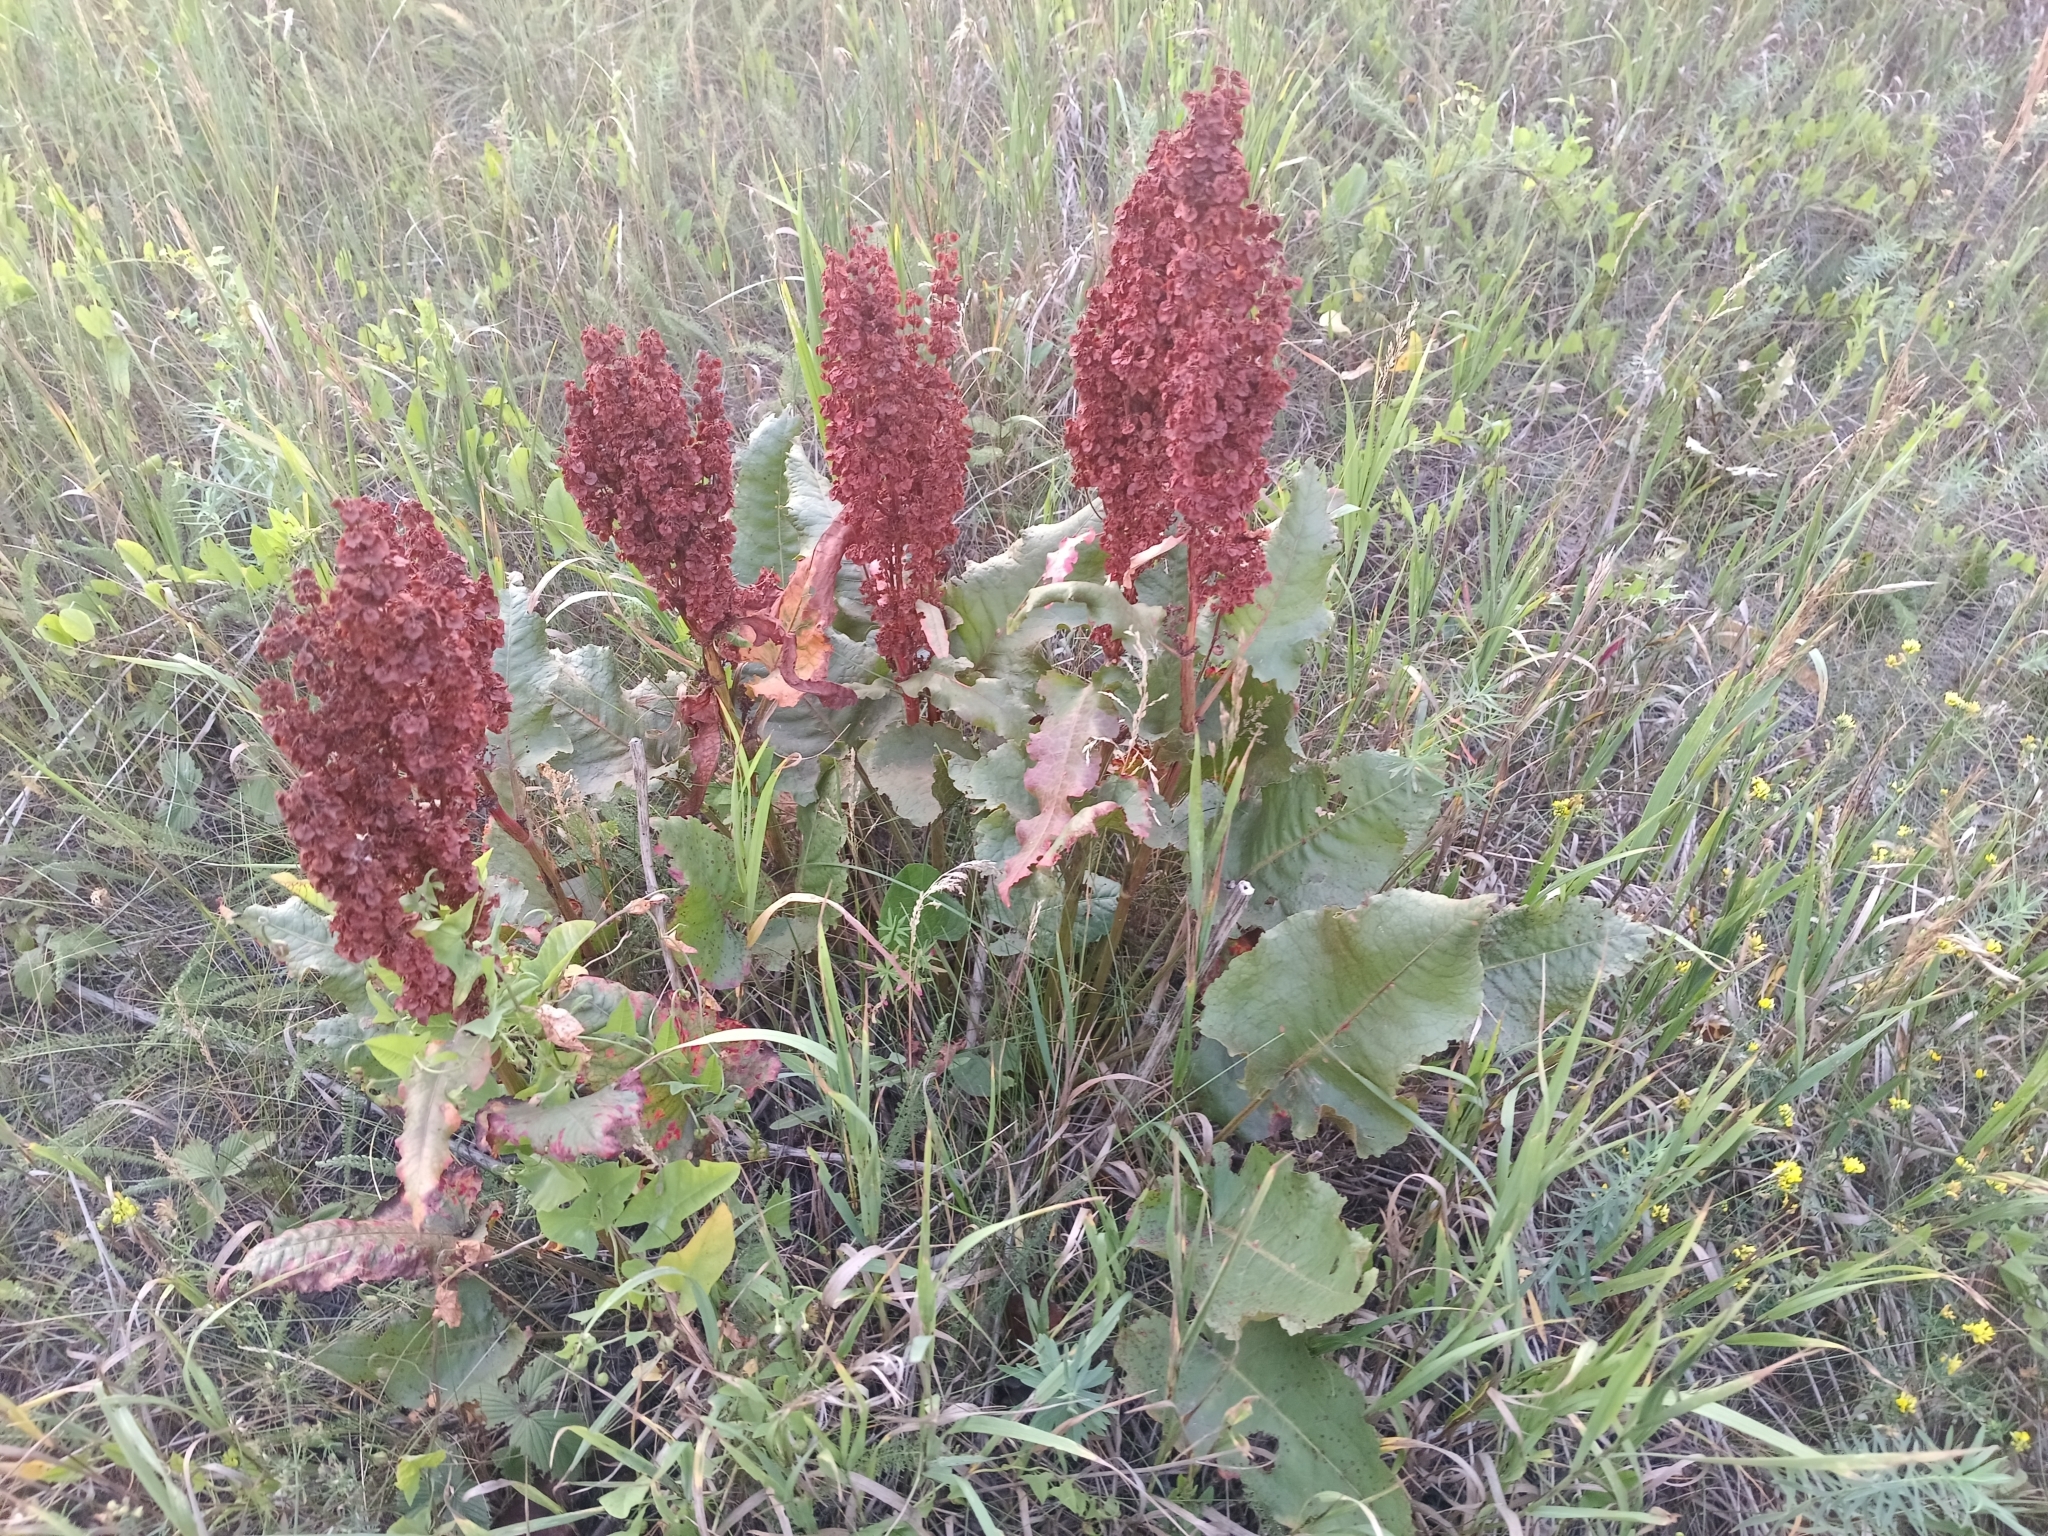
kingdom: Plantae
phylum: Tracheophyta
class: Magnoliopsida
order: Caryophyllales
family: Polygonaceae
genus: Rumex
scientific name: Rumex confertus
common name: Russian dock
